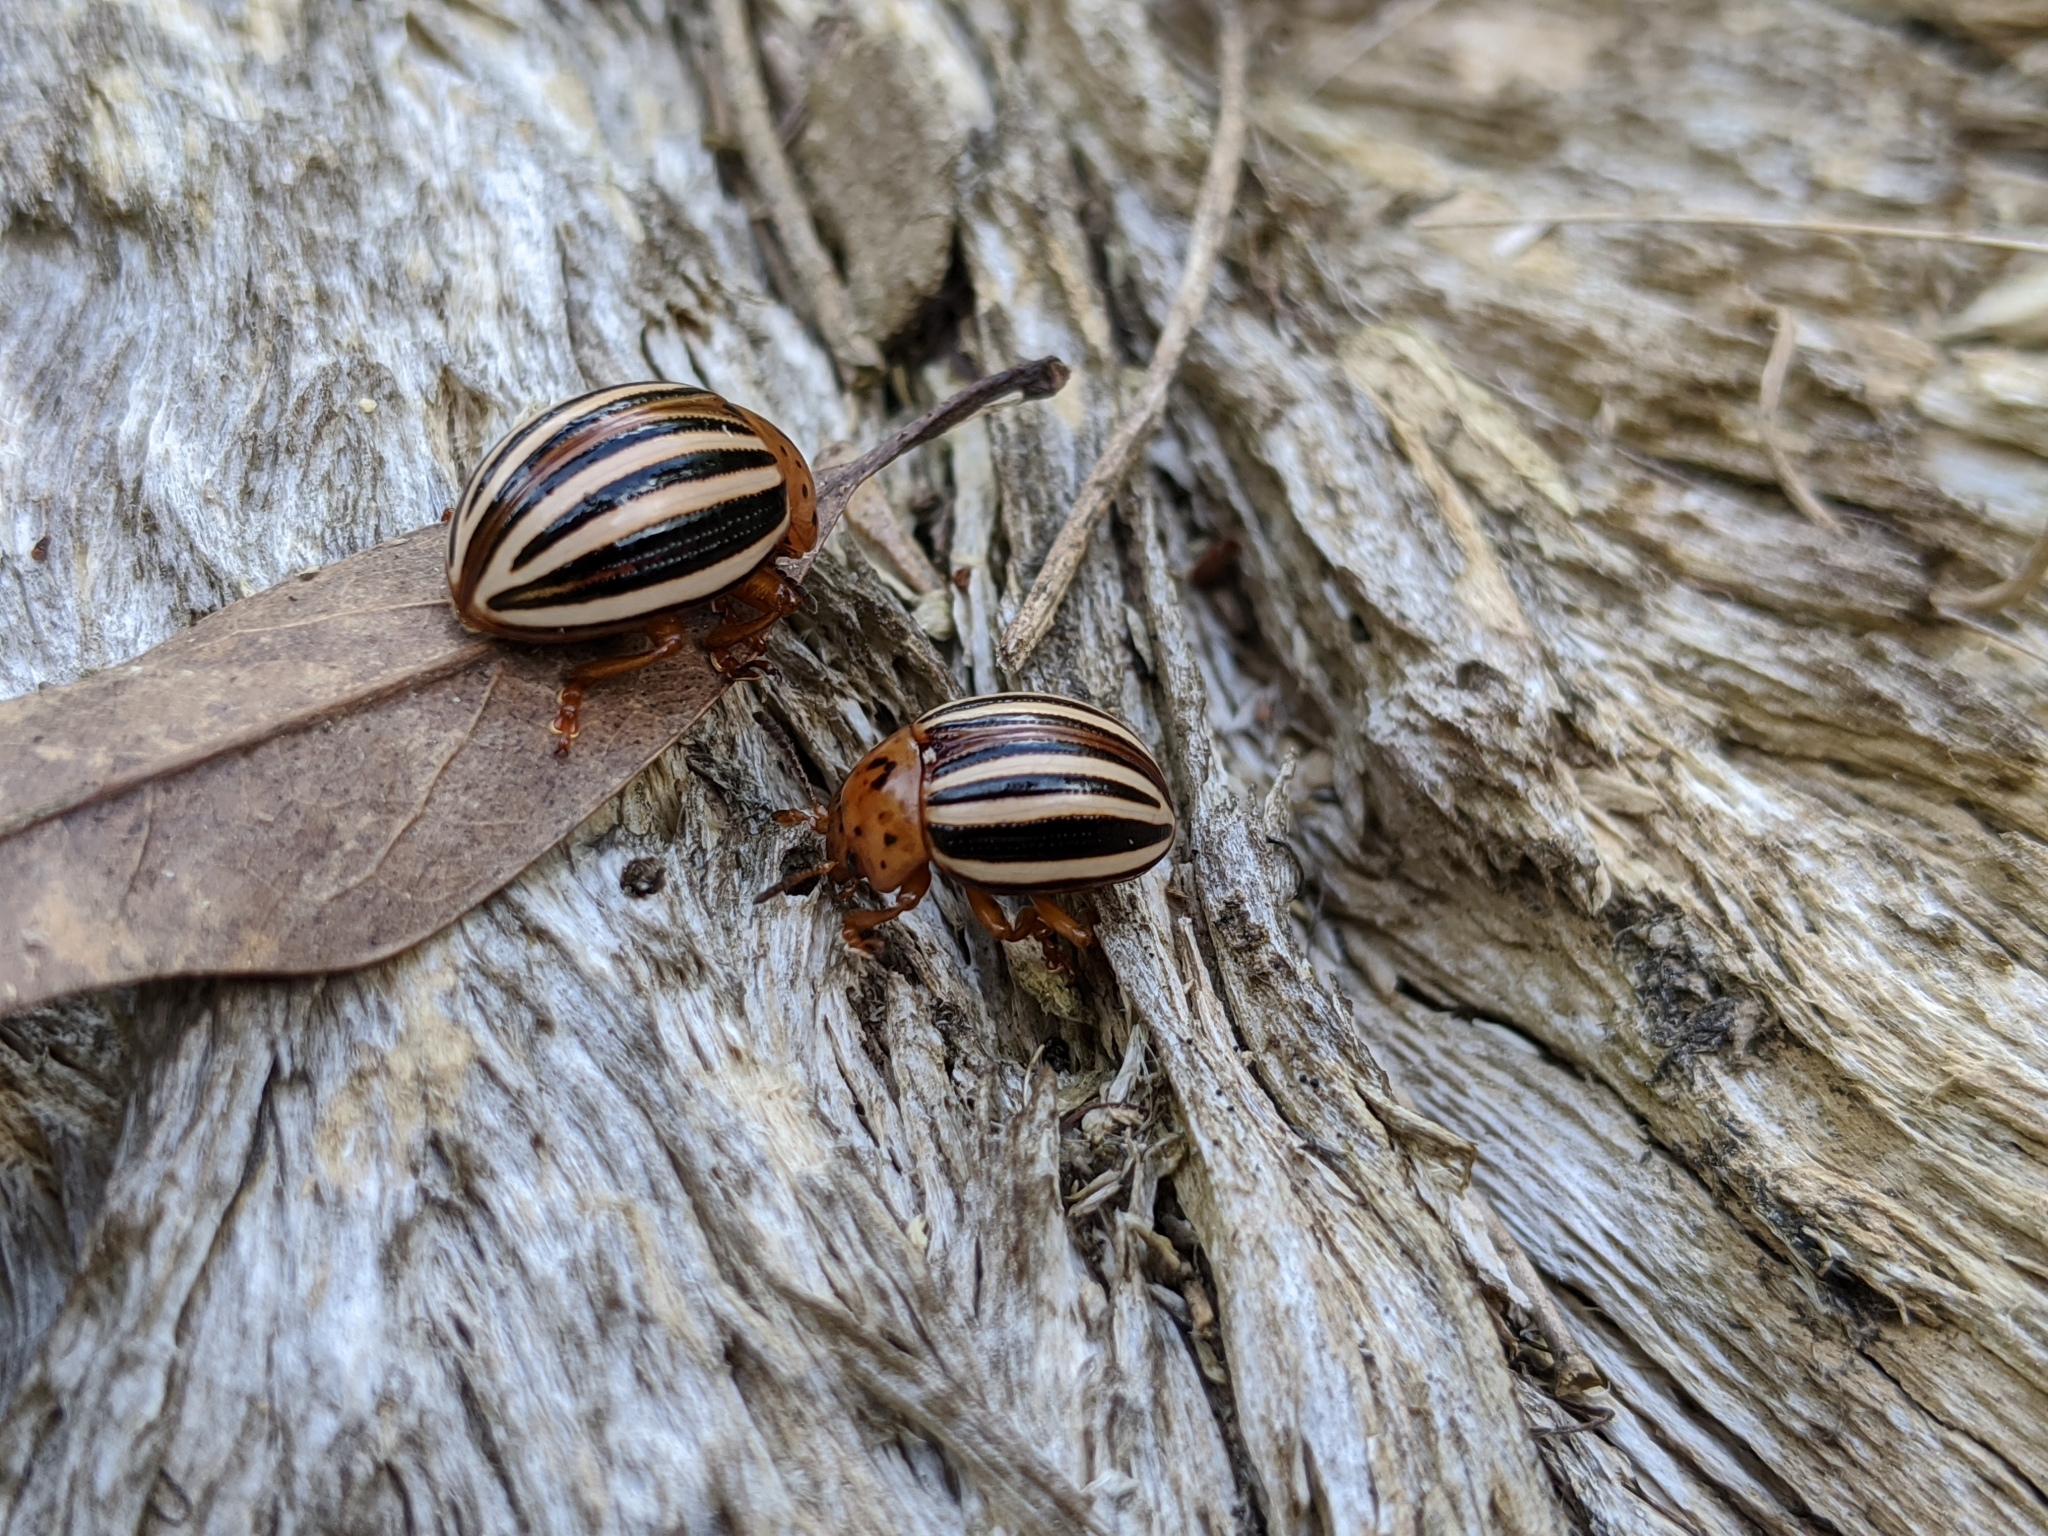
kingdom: Animalia
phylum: Arthropoda
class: Insecta
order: Coleoptera
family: Chrysomelidae
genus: Leptinotarsa
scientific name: Leptinotarsa juncta
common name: False potato beetle
